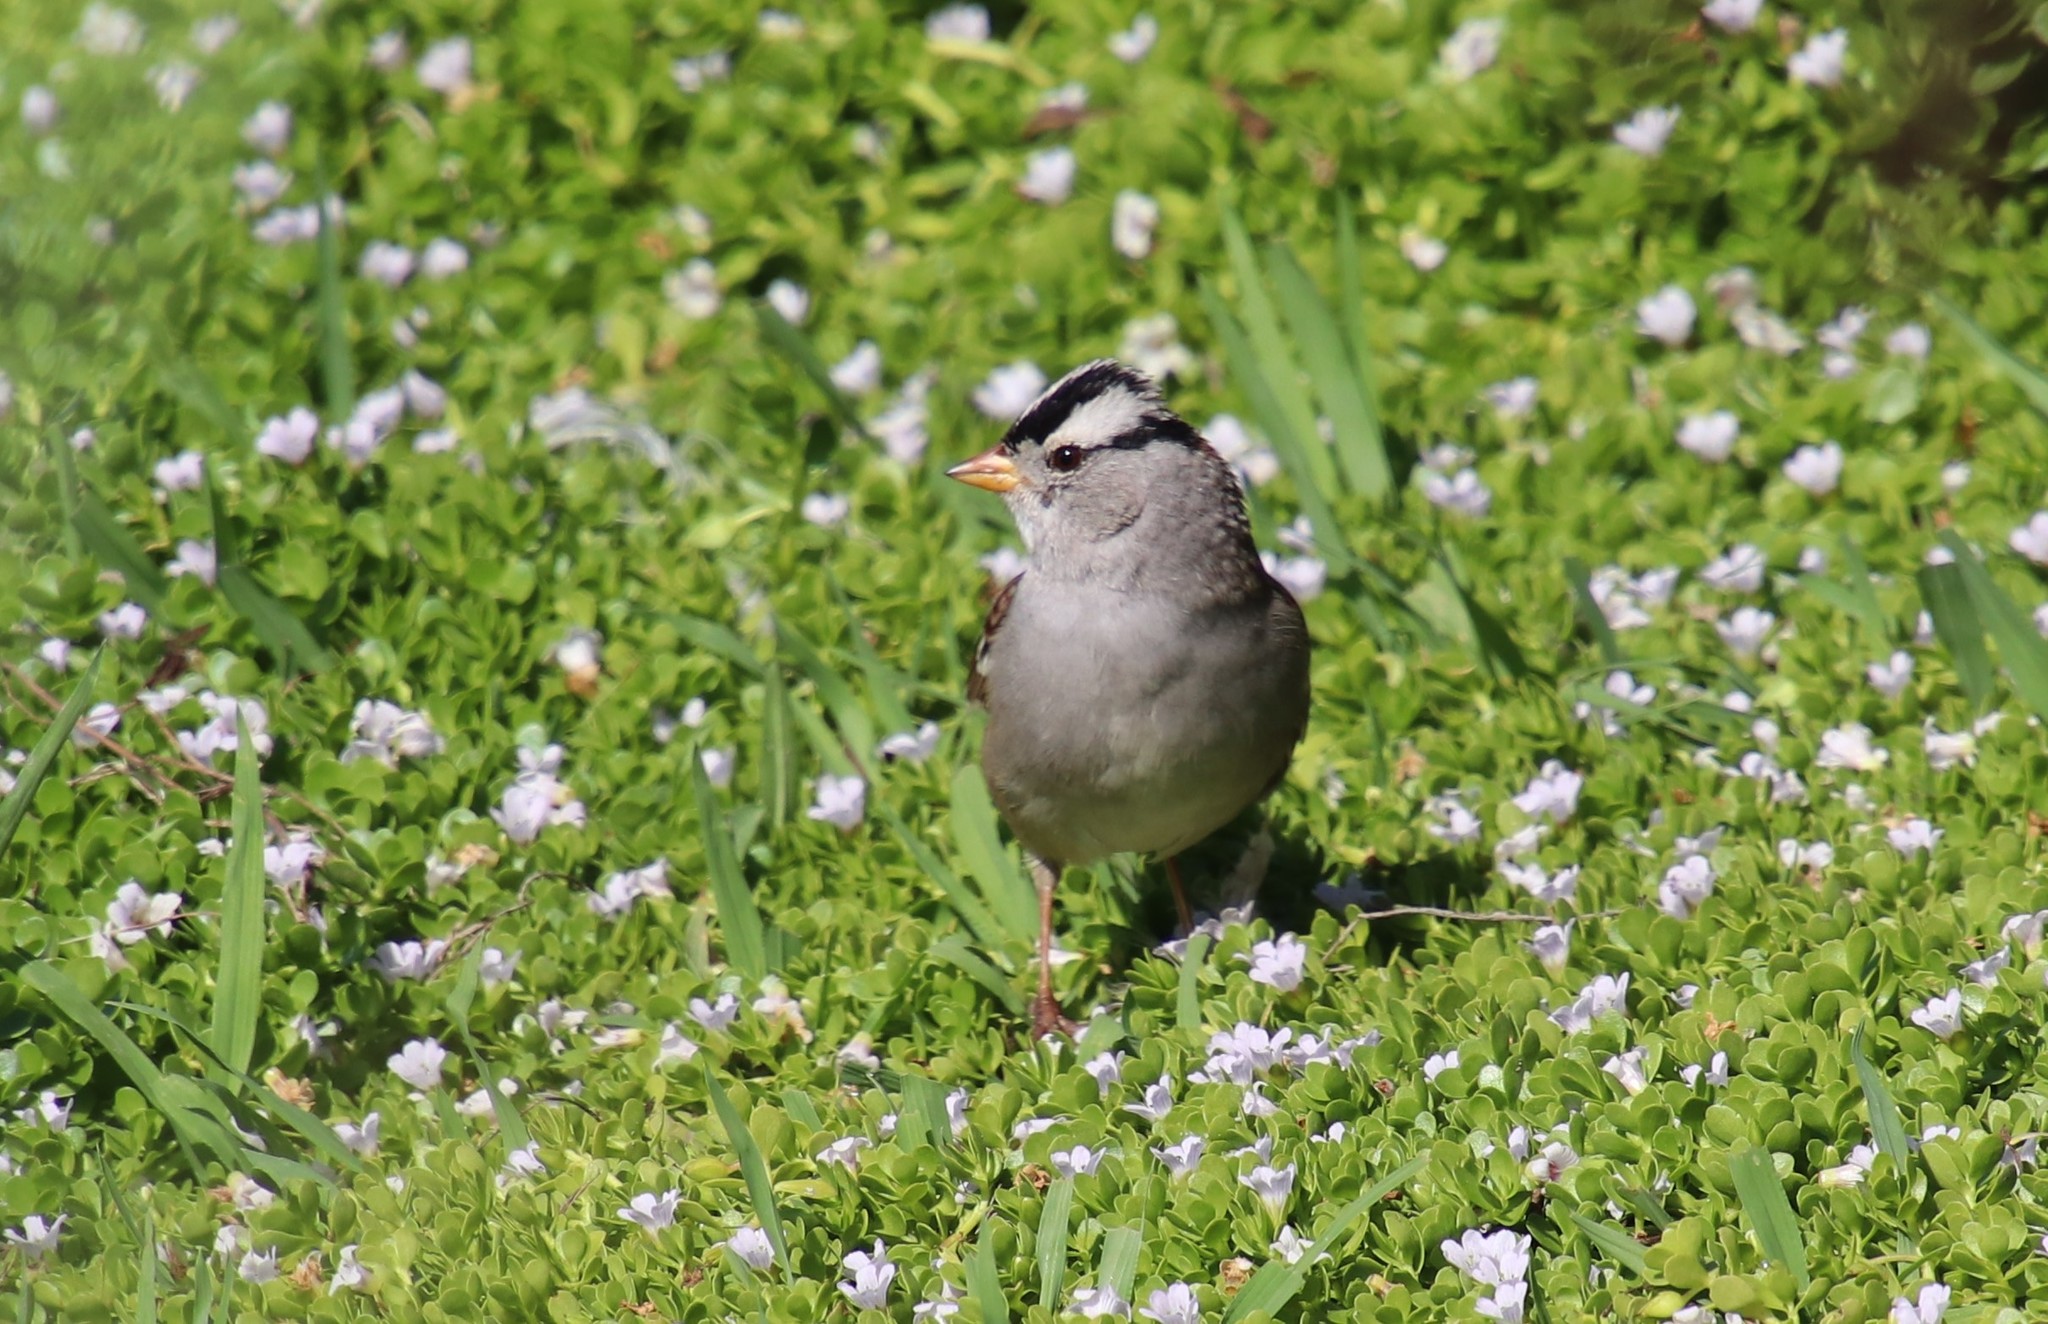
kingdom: Animalia
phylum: Chordata
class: Aves
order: Passeriformes
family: Passerellidae
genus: Zonotrichia
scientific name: Zonotrichia leucophrys
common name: White-crowned sparrow
